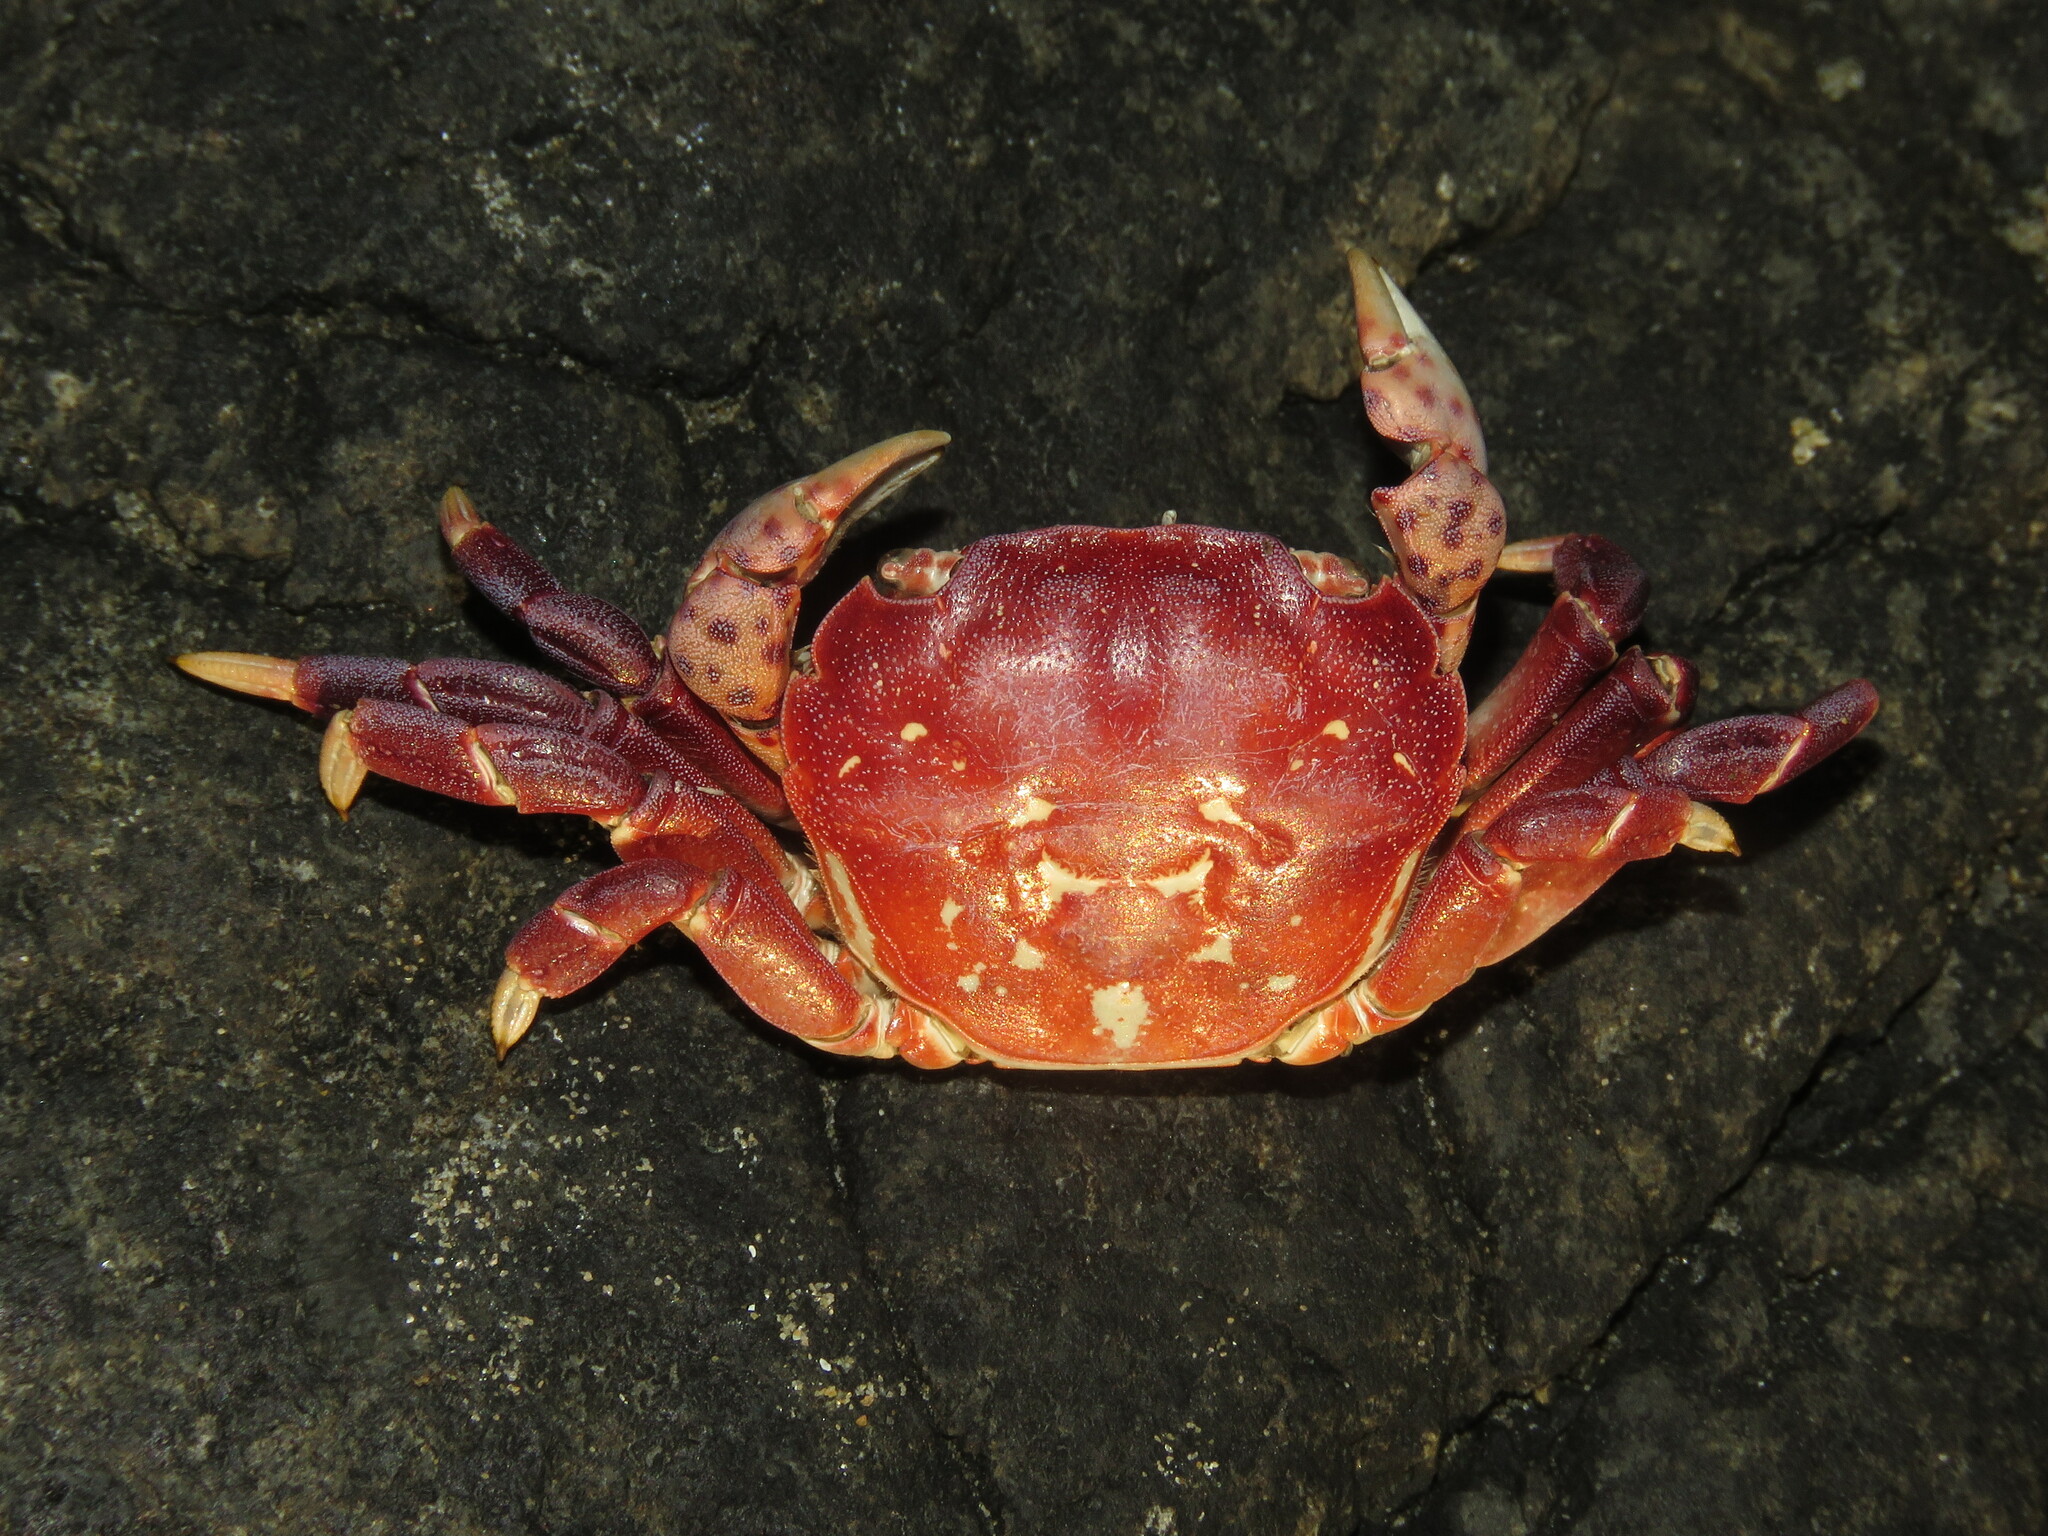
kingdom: Animalia
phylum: Arthropoda
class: Malacostraca
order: Decapoda
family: Varunidae
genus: Hemigrapsus
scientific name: Hemigrapsus nudus
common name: Purple shore crab
